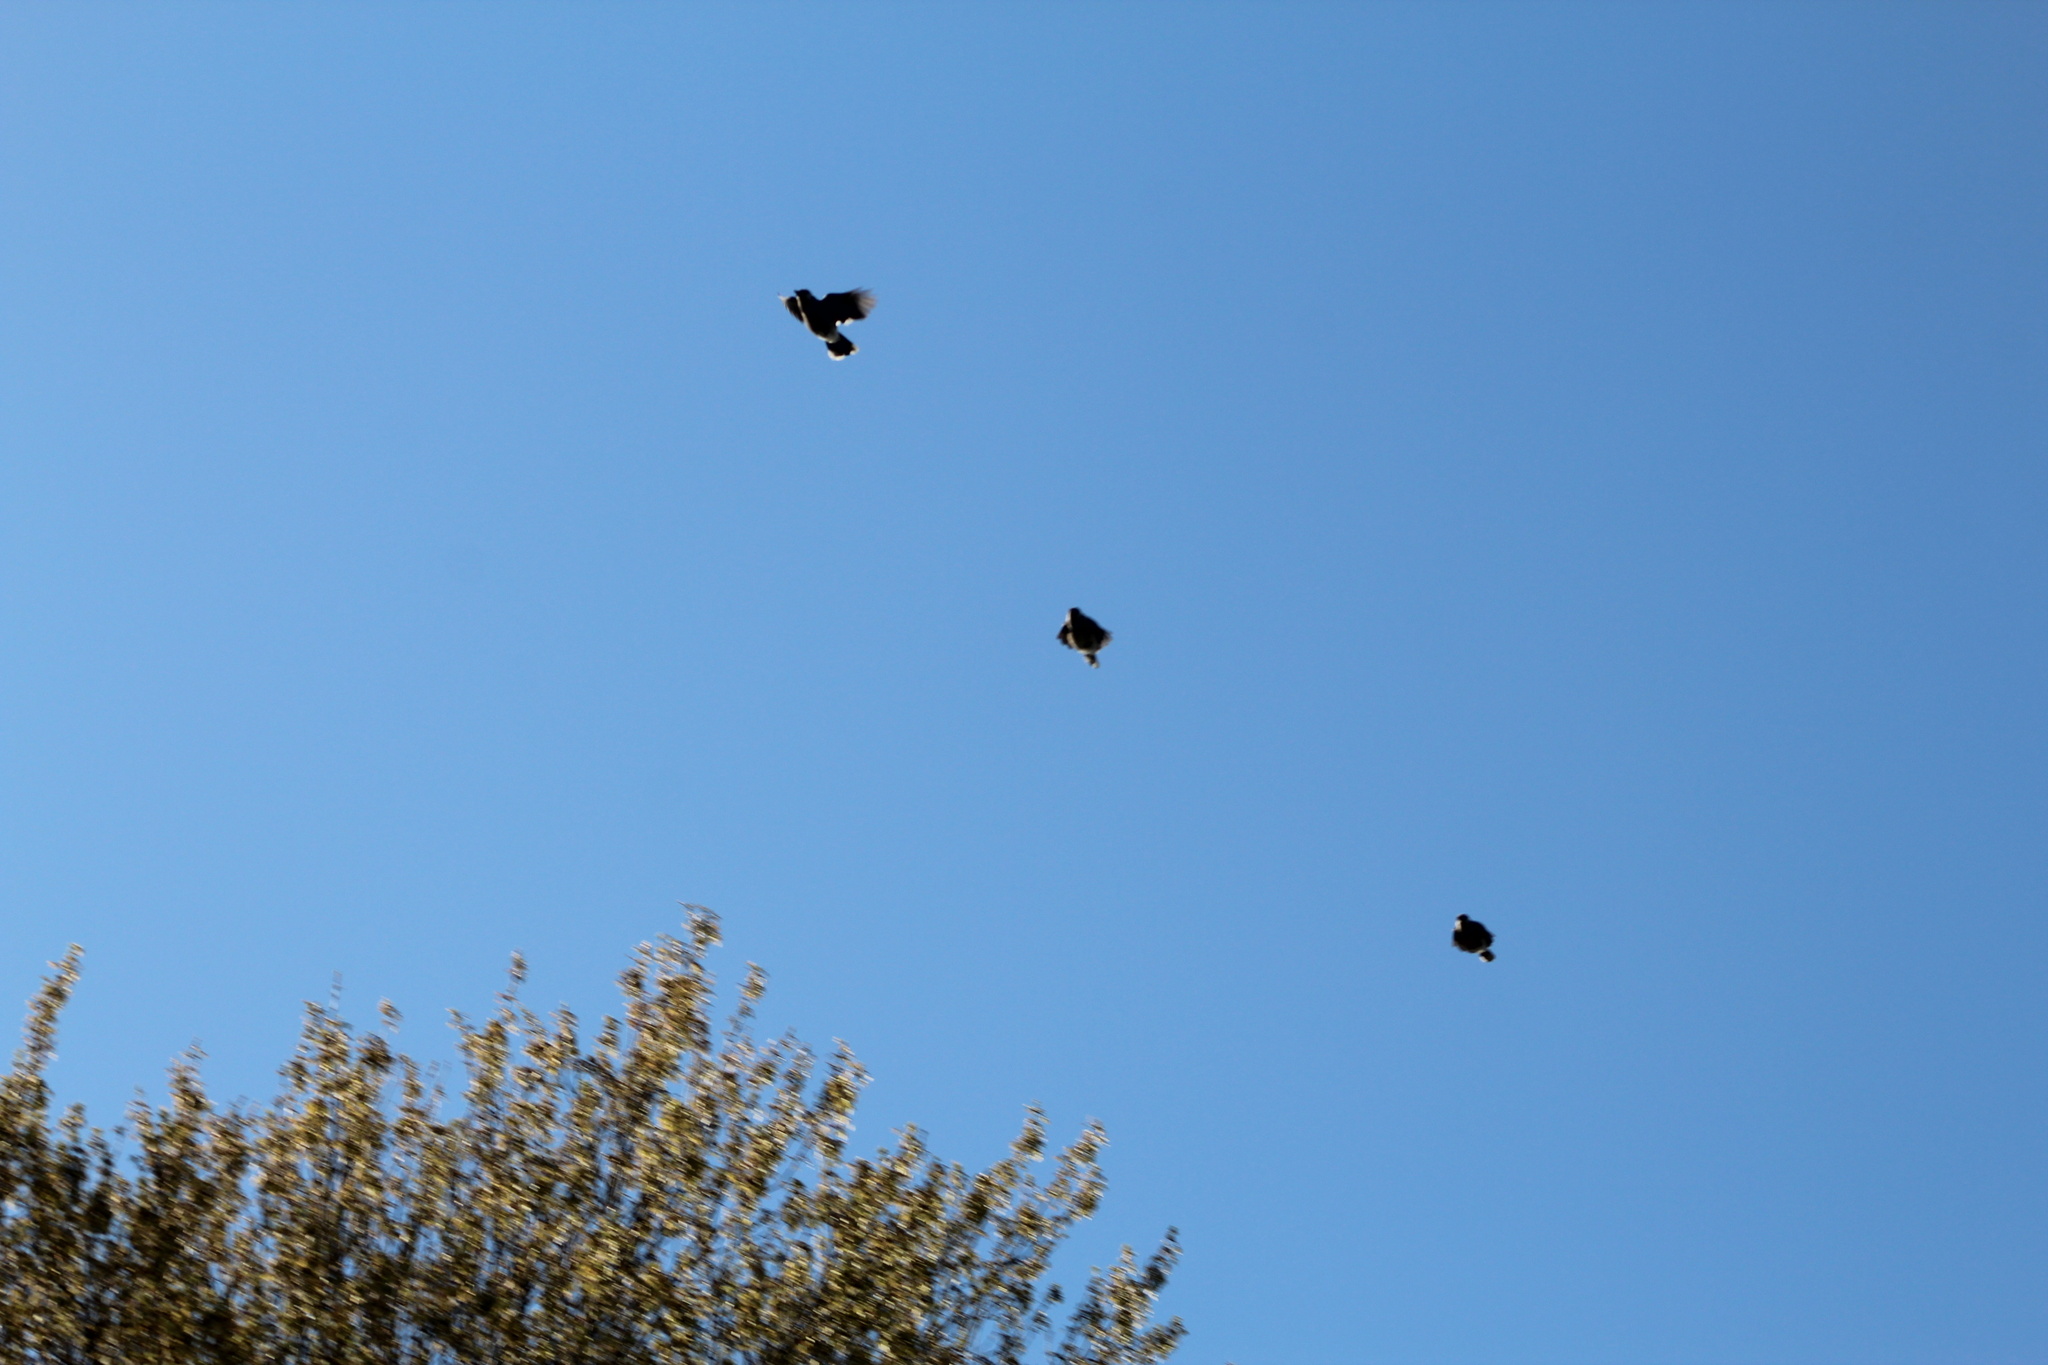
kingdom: Animalia
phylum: Chordata
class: Aves
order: Passeriformes
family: Corvidae
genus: Cyanocitta
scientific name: Cyanocitta cristata
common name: Blue jay
